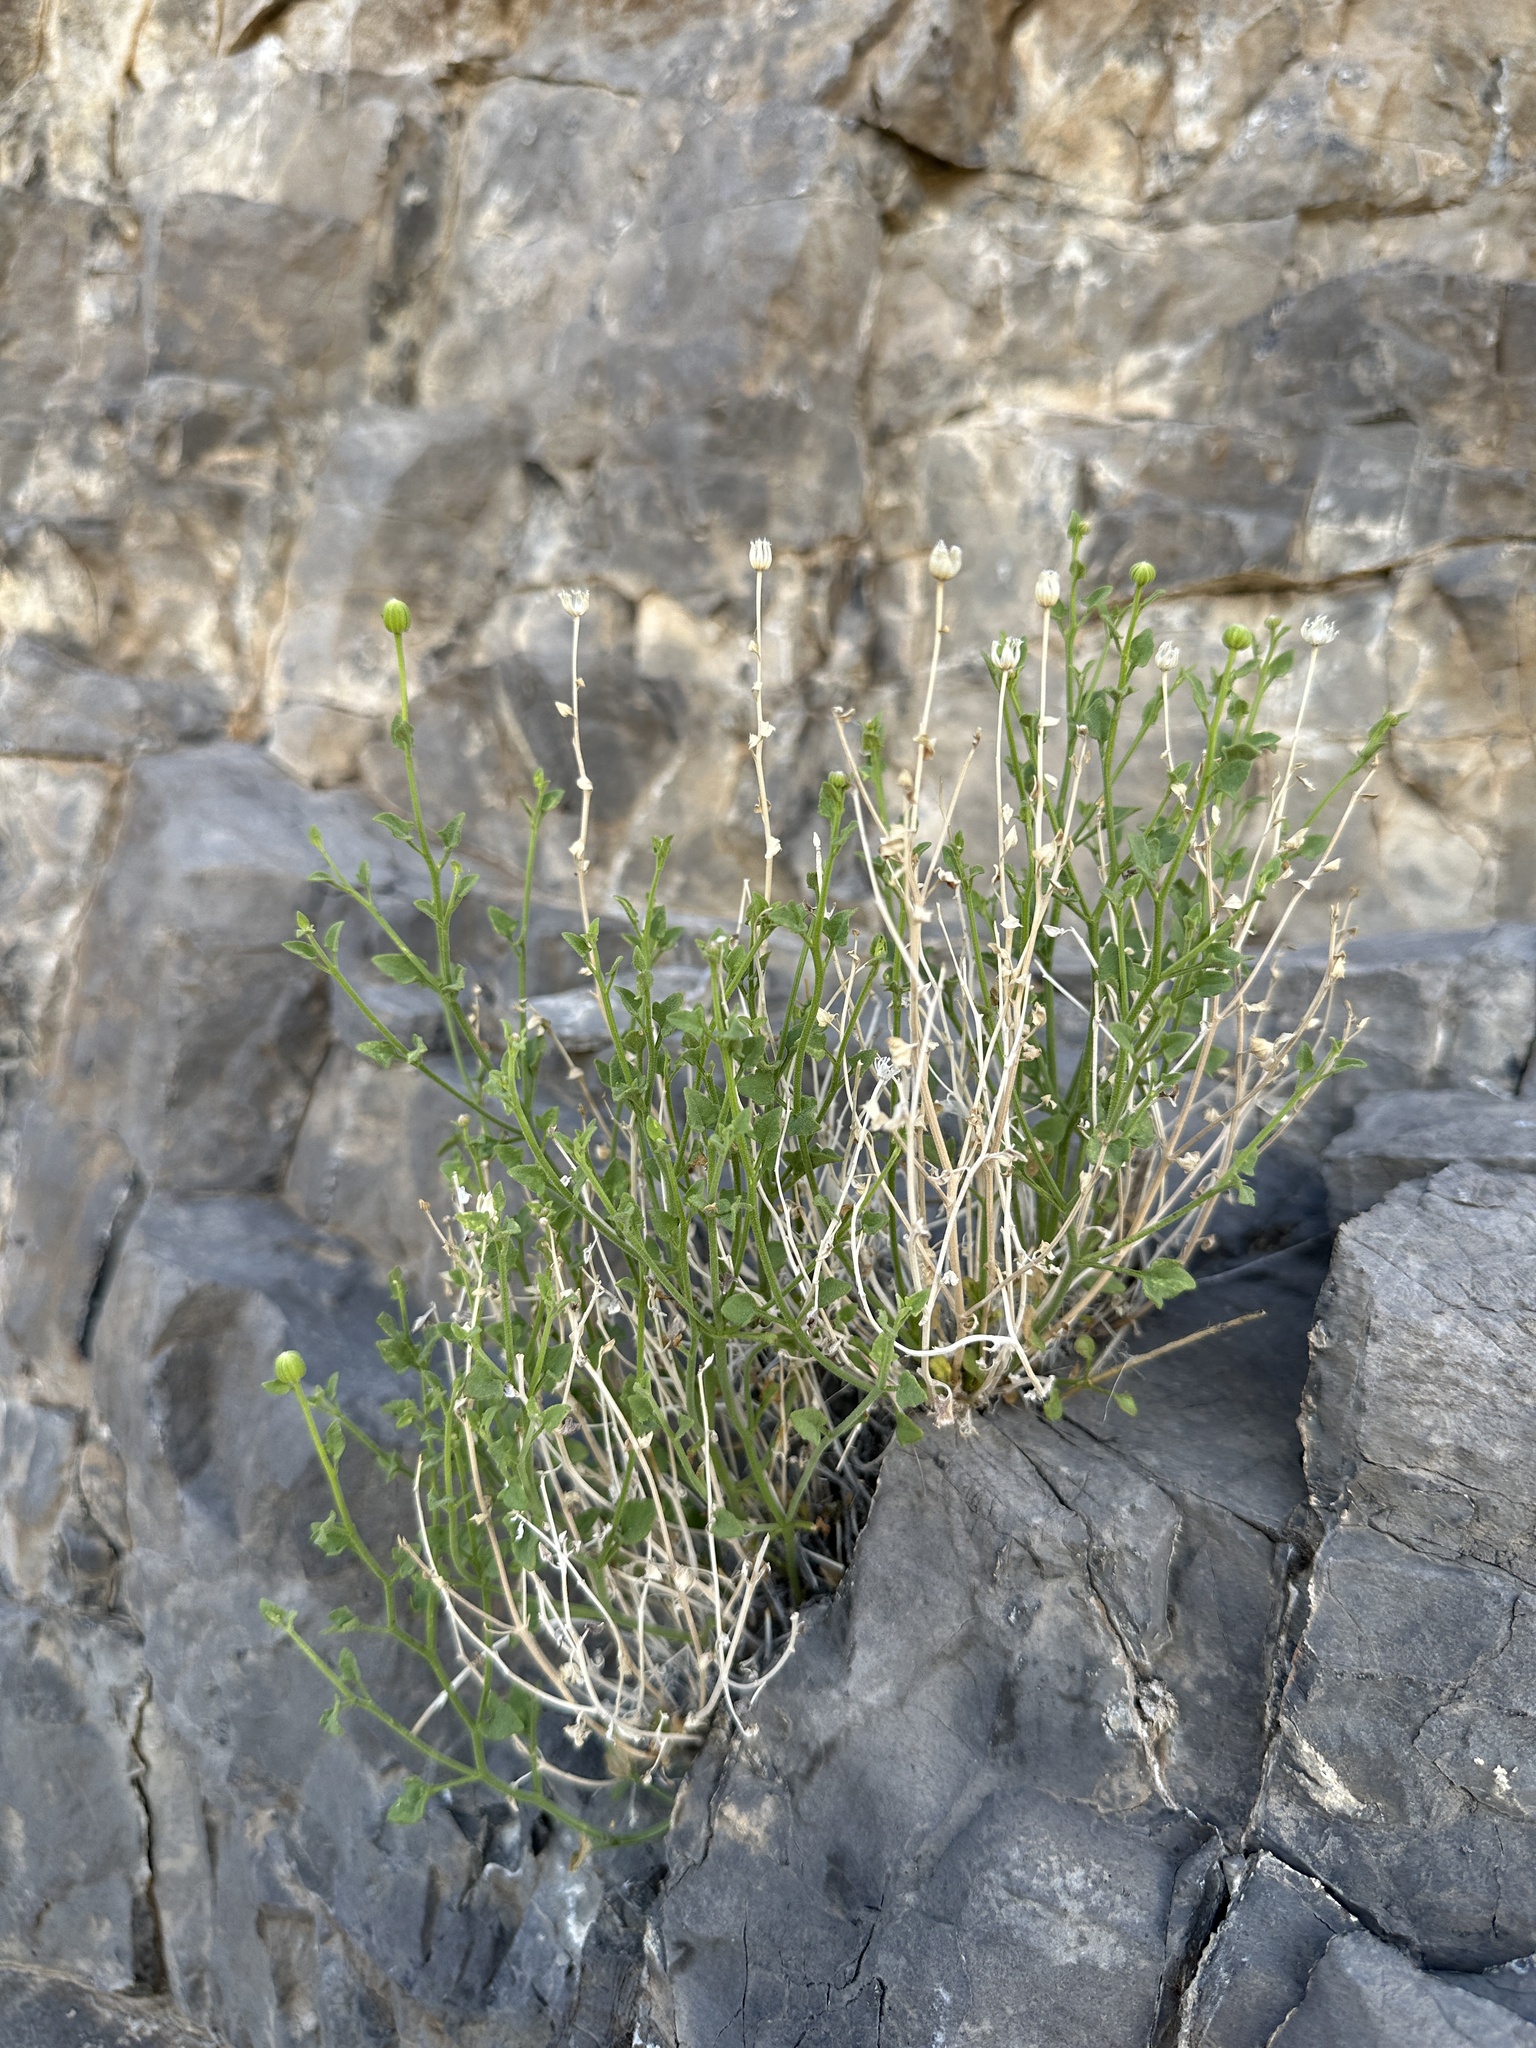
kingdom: Plantae
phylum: Tracheophyta
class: Magnoliopsida
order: Asterales
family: Asteraceae
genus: Laphamia
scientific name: Laphamia stansburyi
